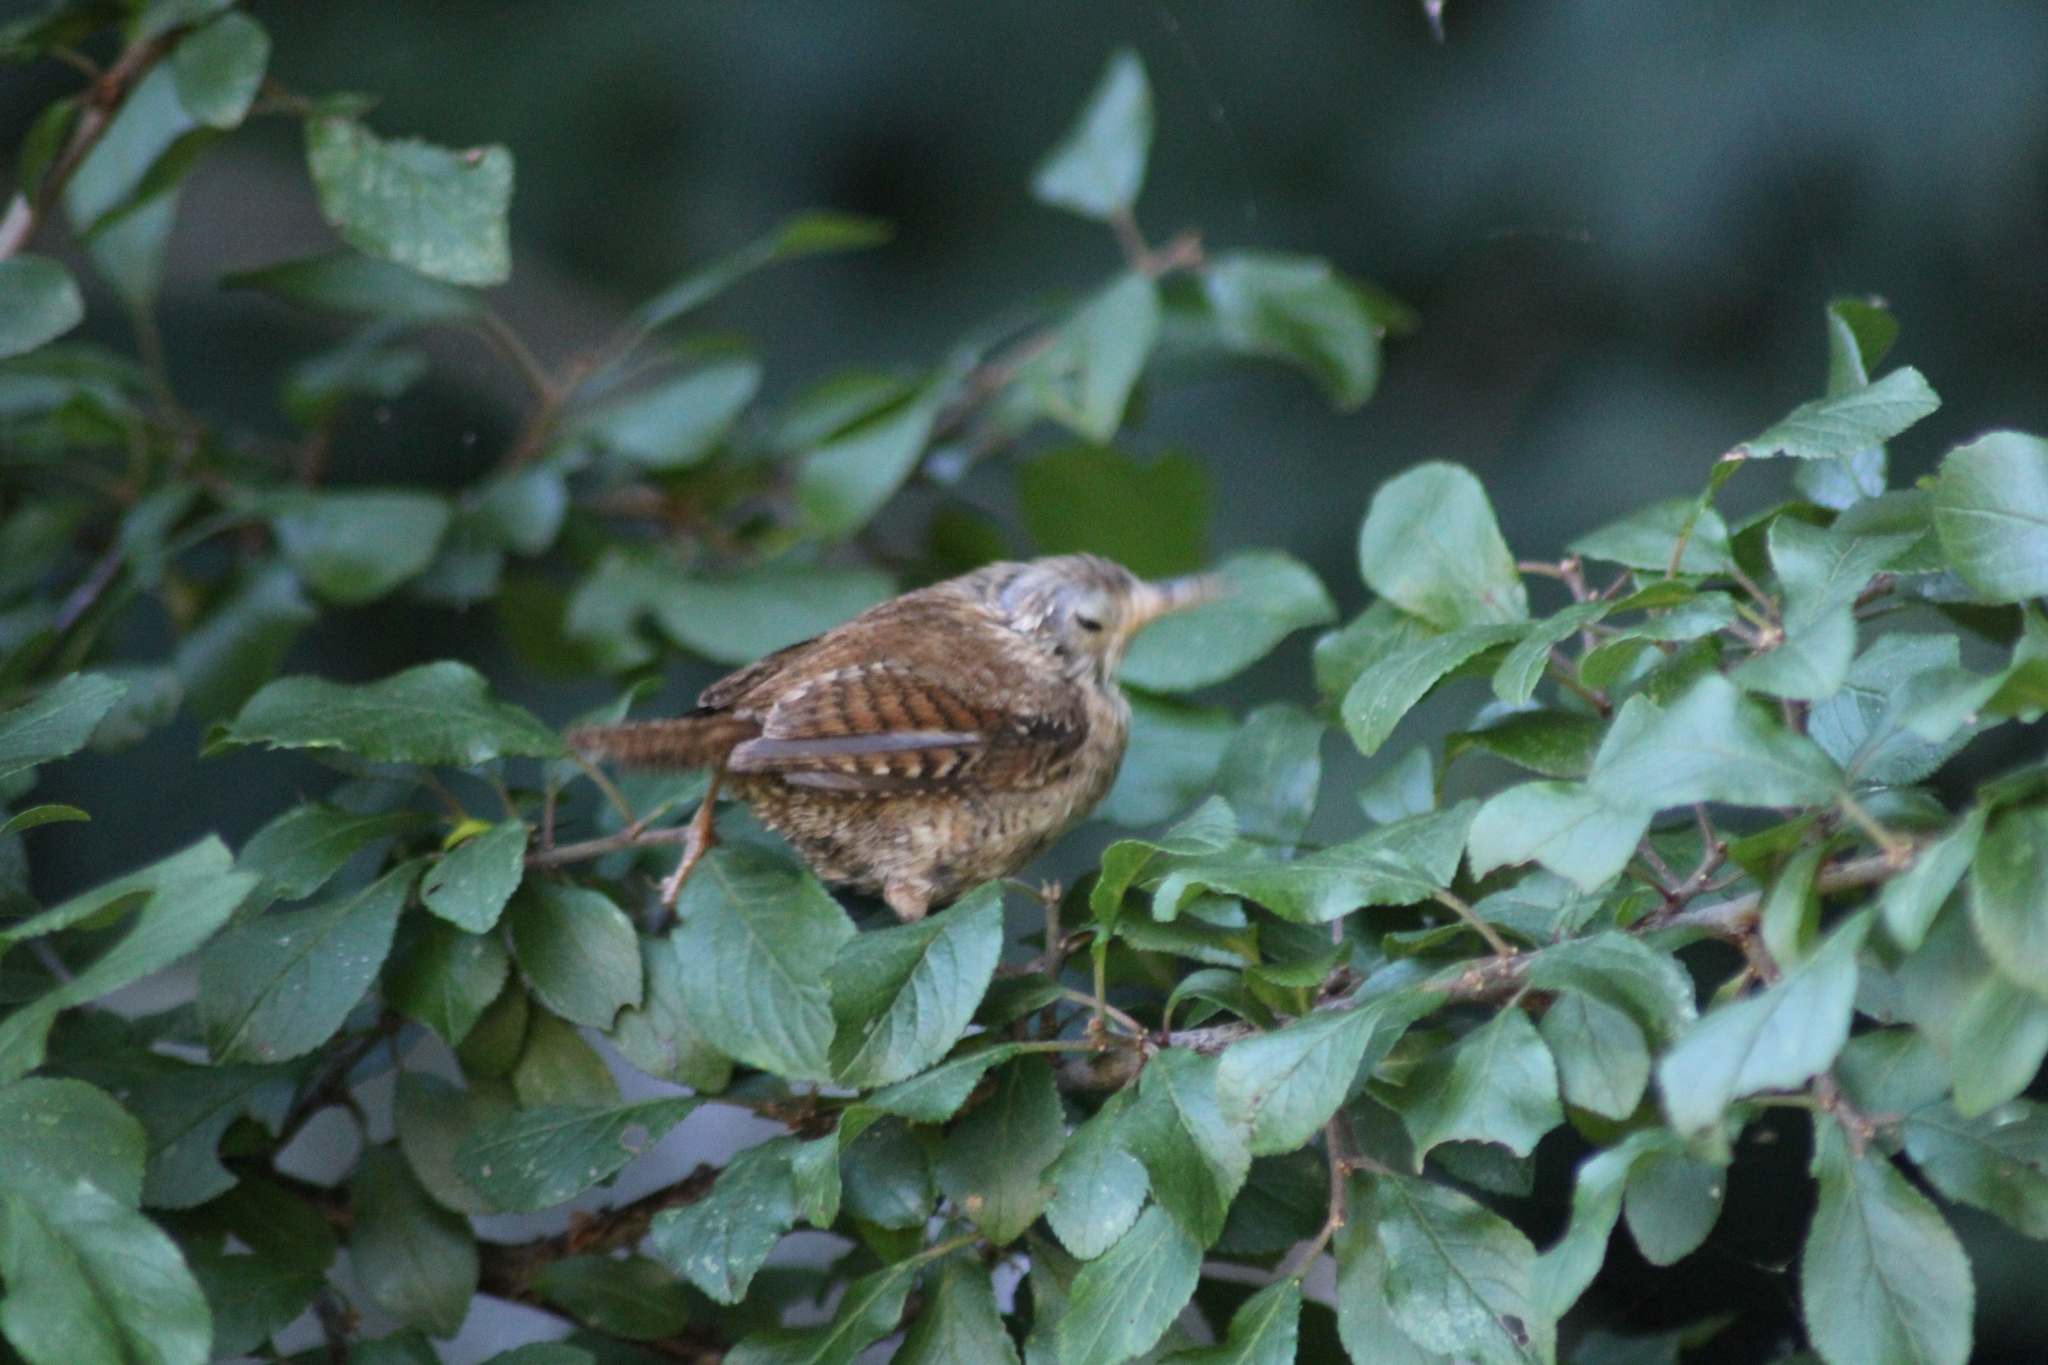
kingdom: Animalia
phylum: Chordata
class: Aves
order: Passeriformes
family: Troglodytidae
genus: Troglodytes
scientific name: Troglodytes troglodytes
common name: Eurasian wren
